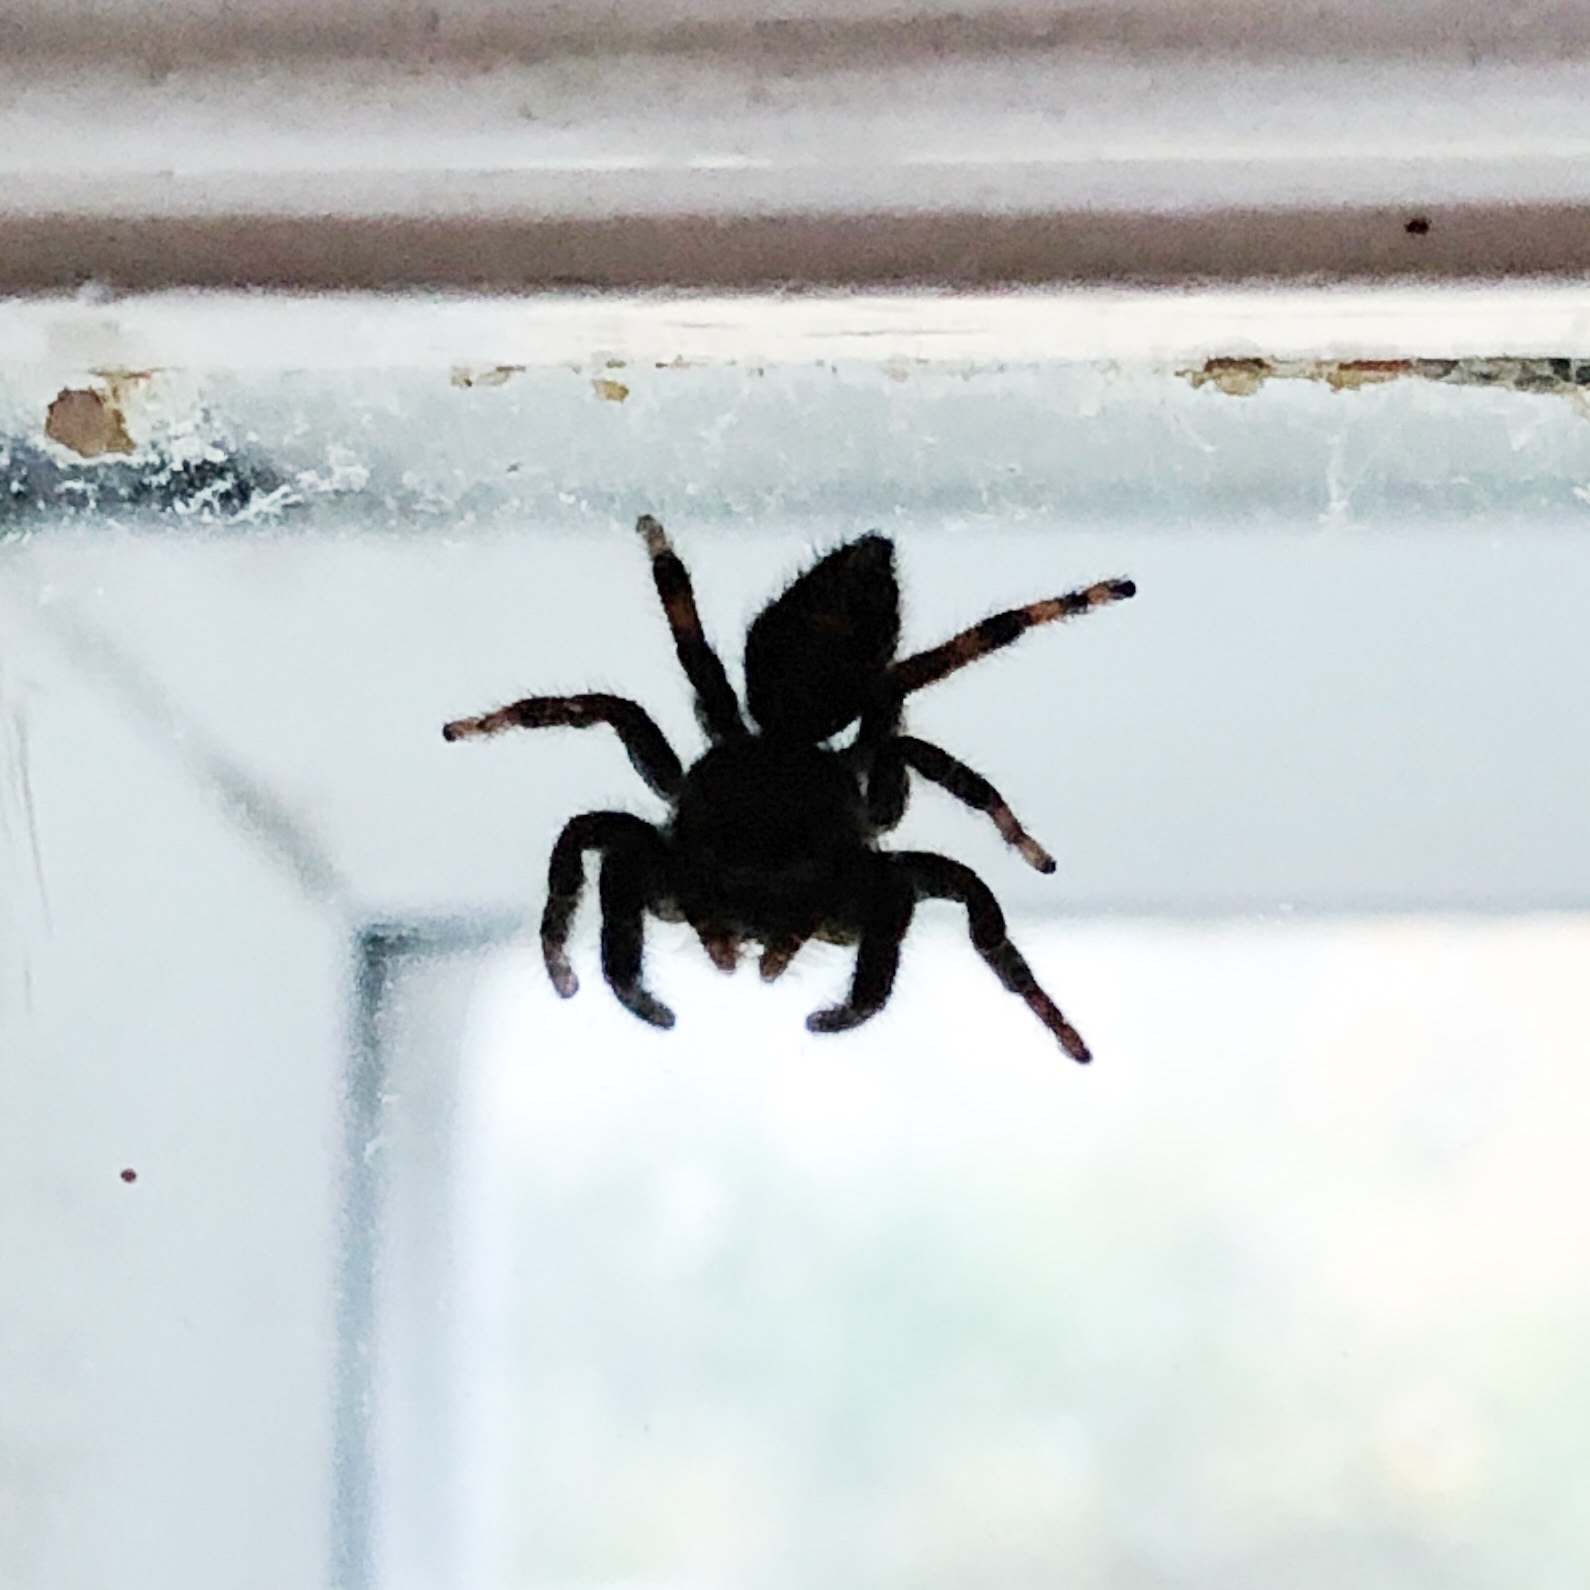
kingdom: Animalia
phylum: Arthropoda
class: Arachnida
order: Araneae
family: Salticidae
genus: Phidippus
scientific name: Phidippus audax
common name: Bold jumper
